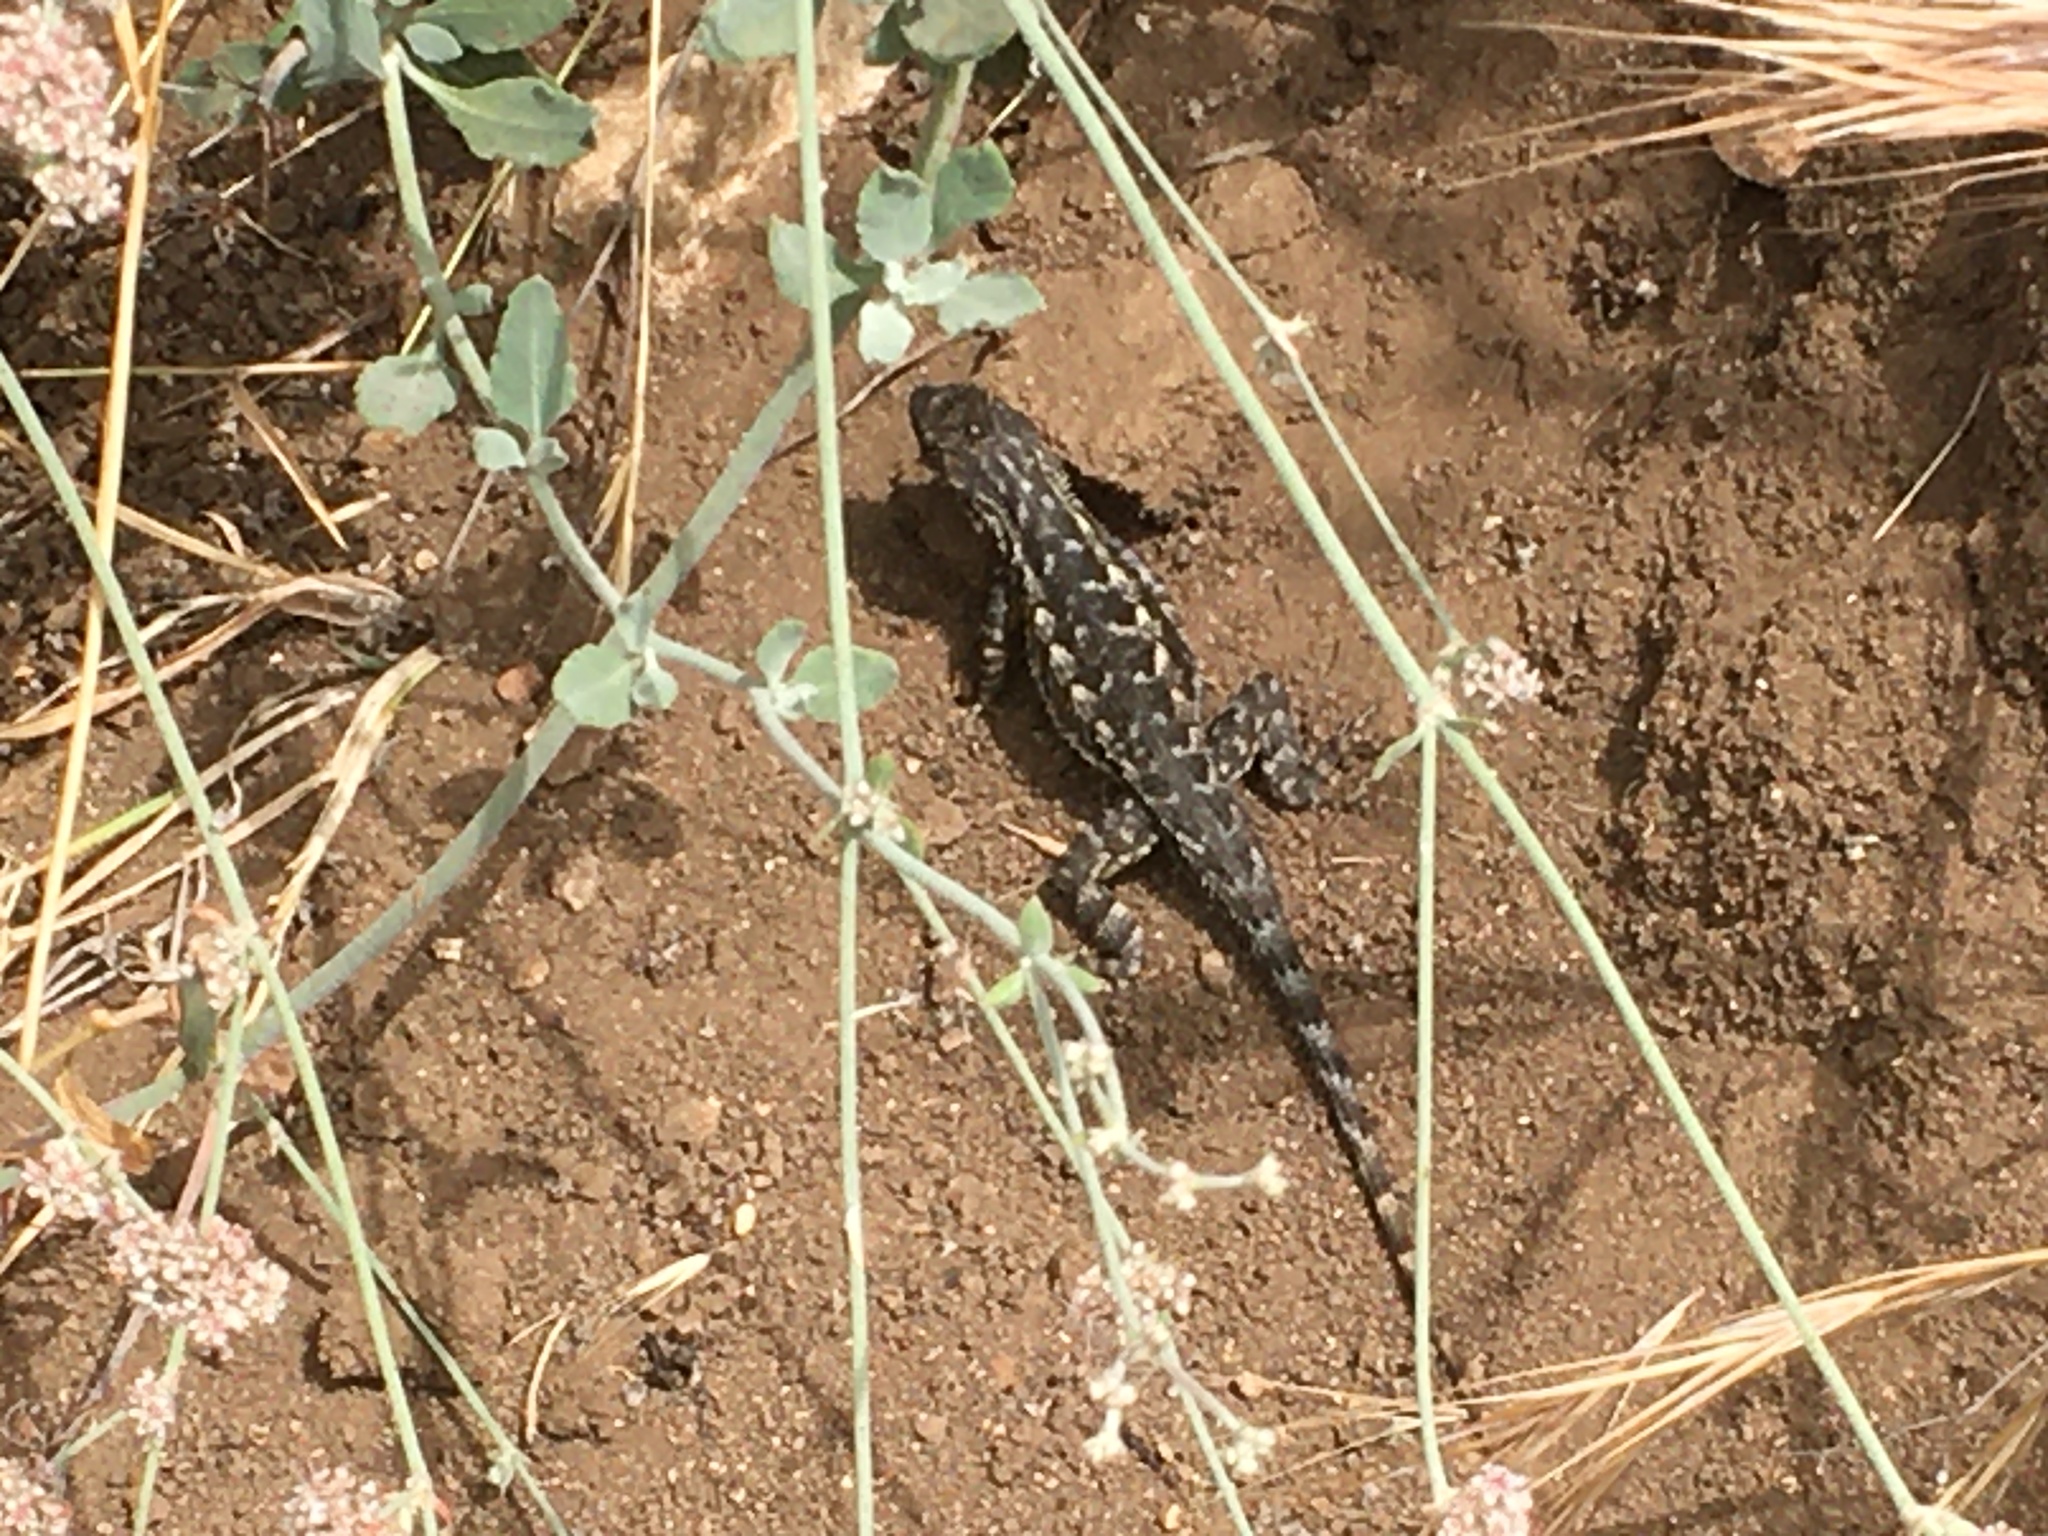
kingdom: Animalia
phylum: Chordata
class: Squamata
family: Phrynosomatidae
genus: Sceloporus
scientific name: Sceloporus occidentalis
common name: Western fence lizard
